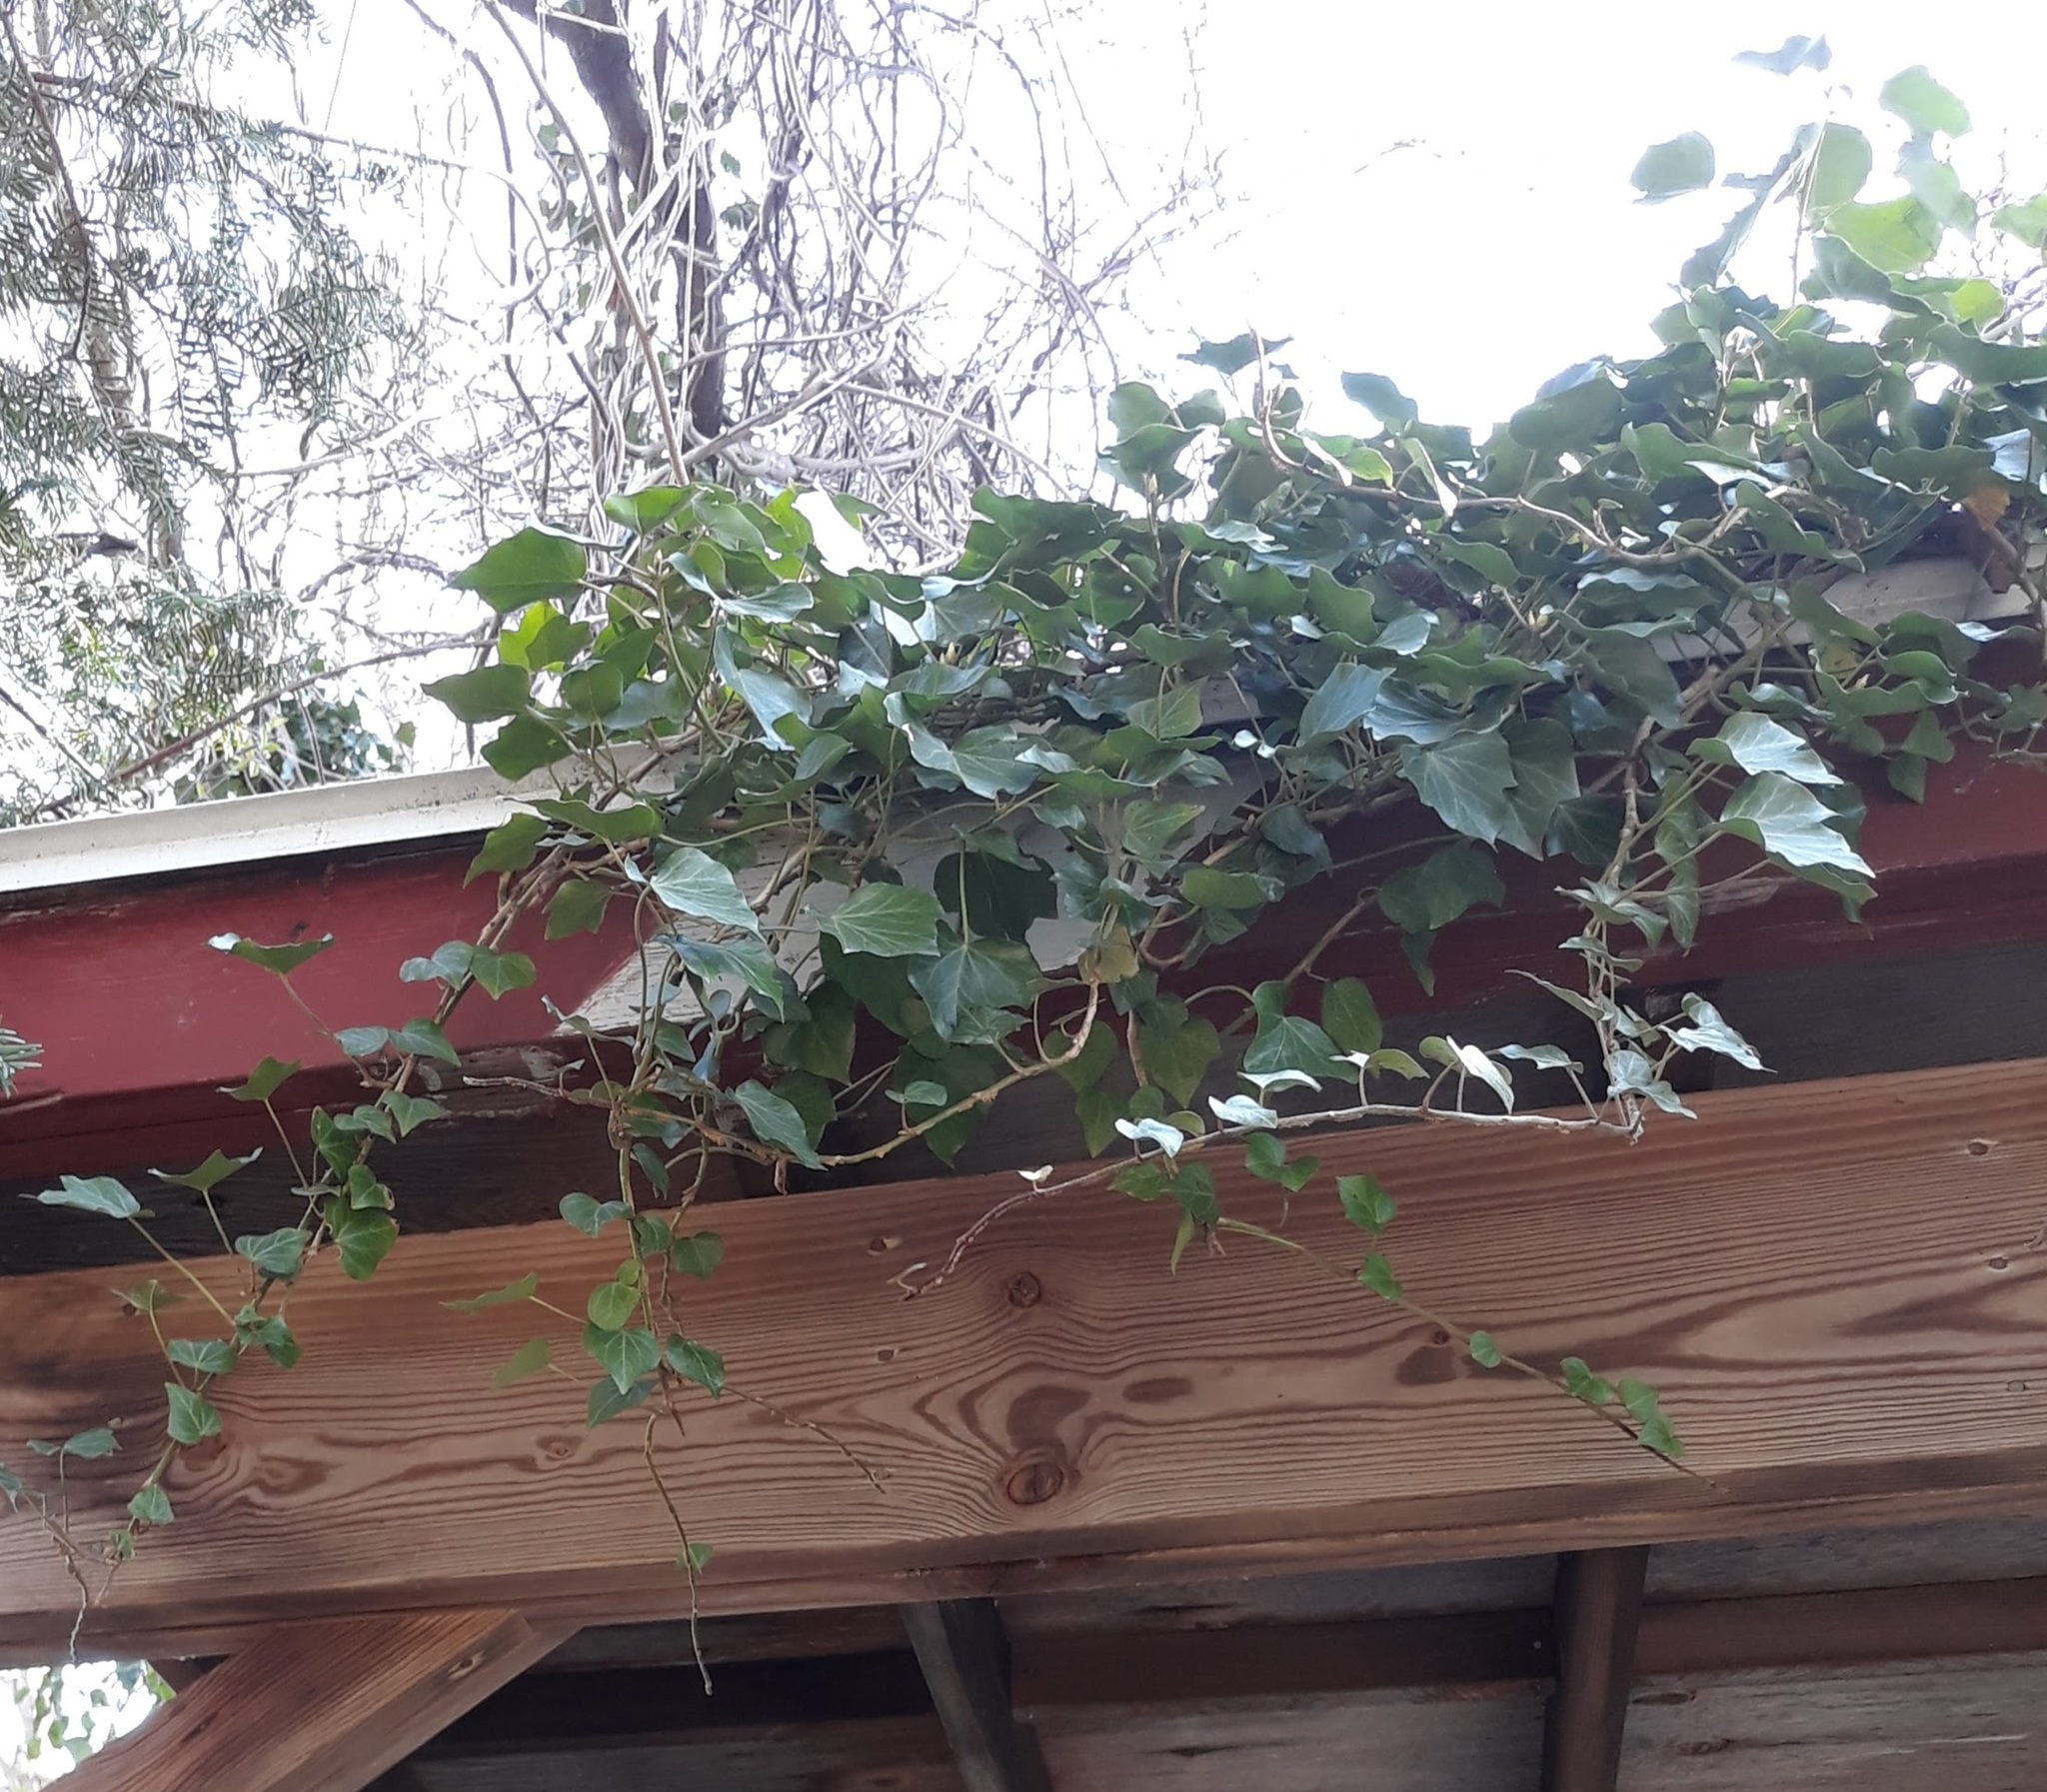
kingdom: Plantae
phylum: Tracheophyta
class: Magnoliopsida
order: Apiales
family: Araliaceae
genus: Hedera
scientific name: Hedera helix
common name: Ivy
